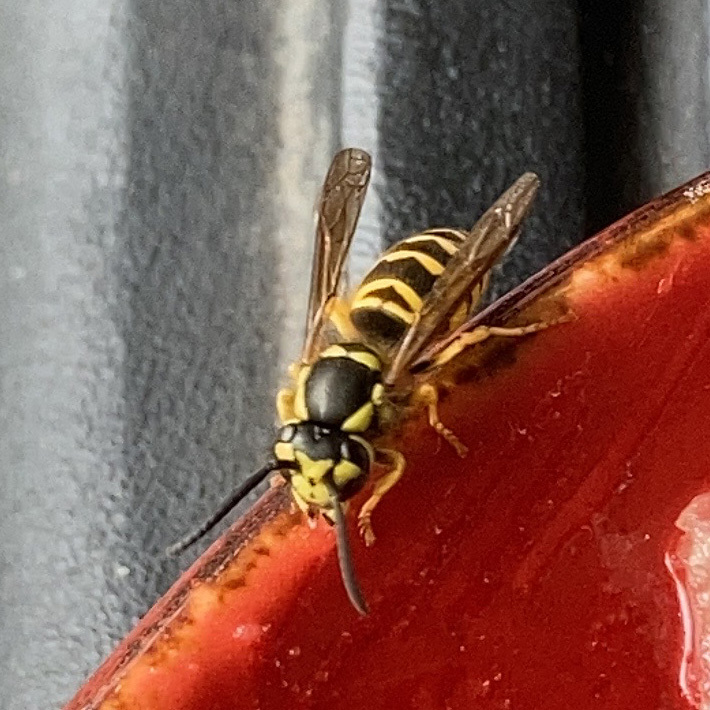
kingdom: Animalia
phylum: Arthropoda
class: Insecta
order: Hymenoptera
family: Vespidae
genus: Vespula
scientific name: Vespula maculifrons
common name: Eastern yellowjacket
